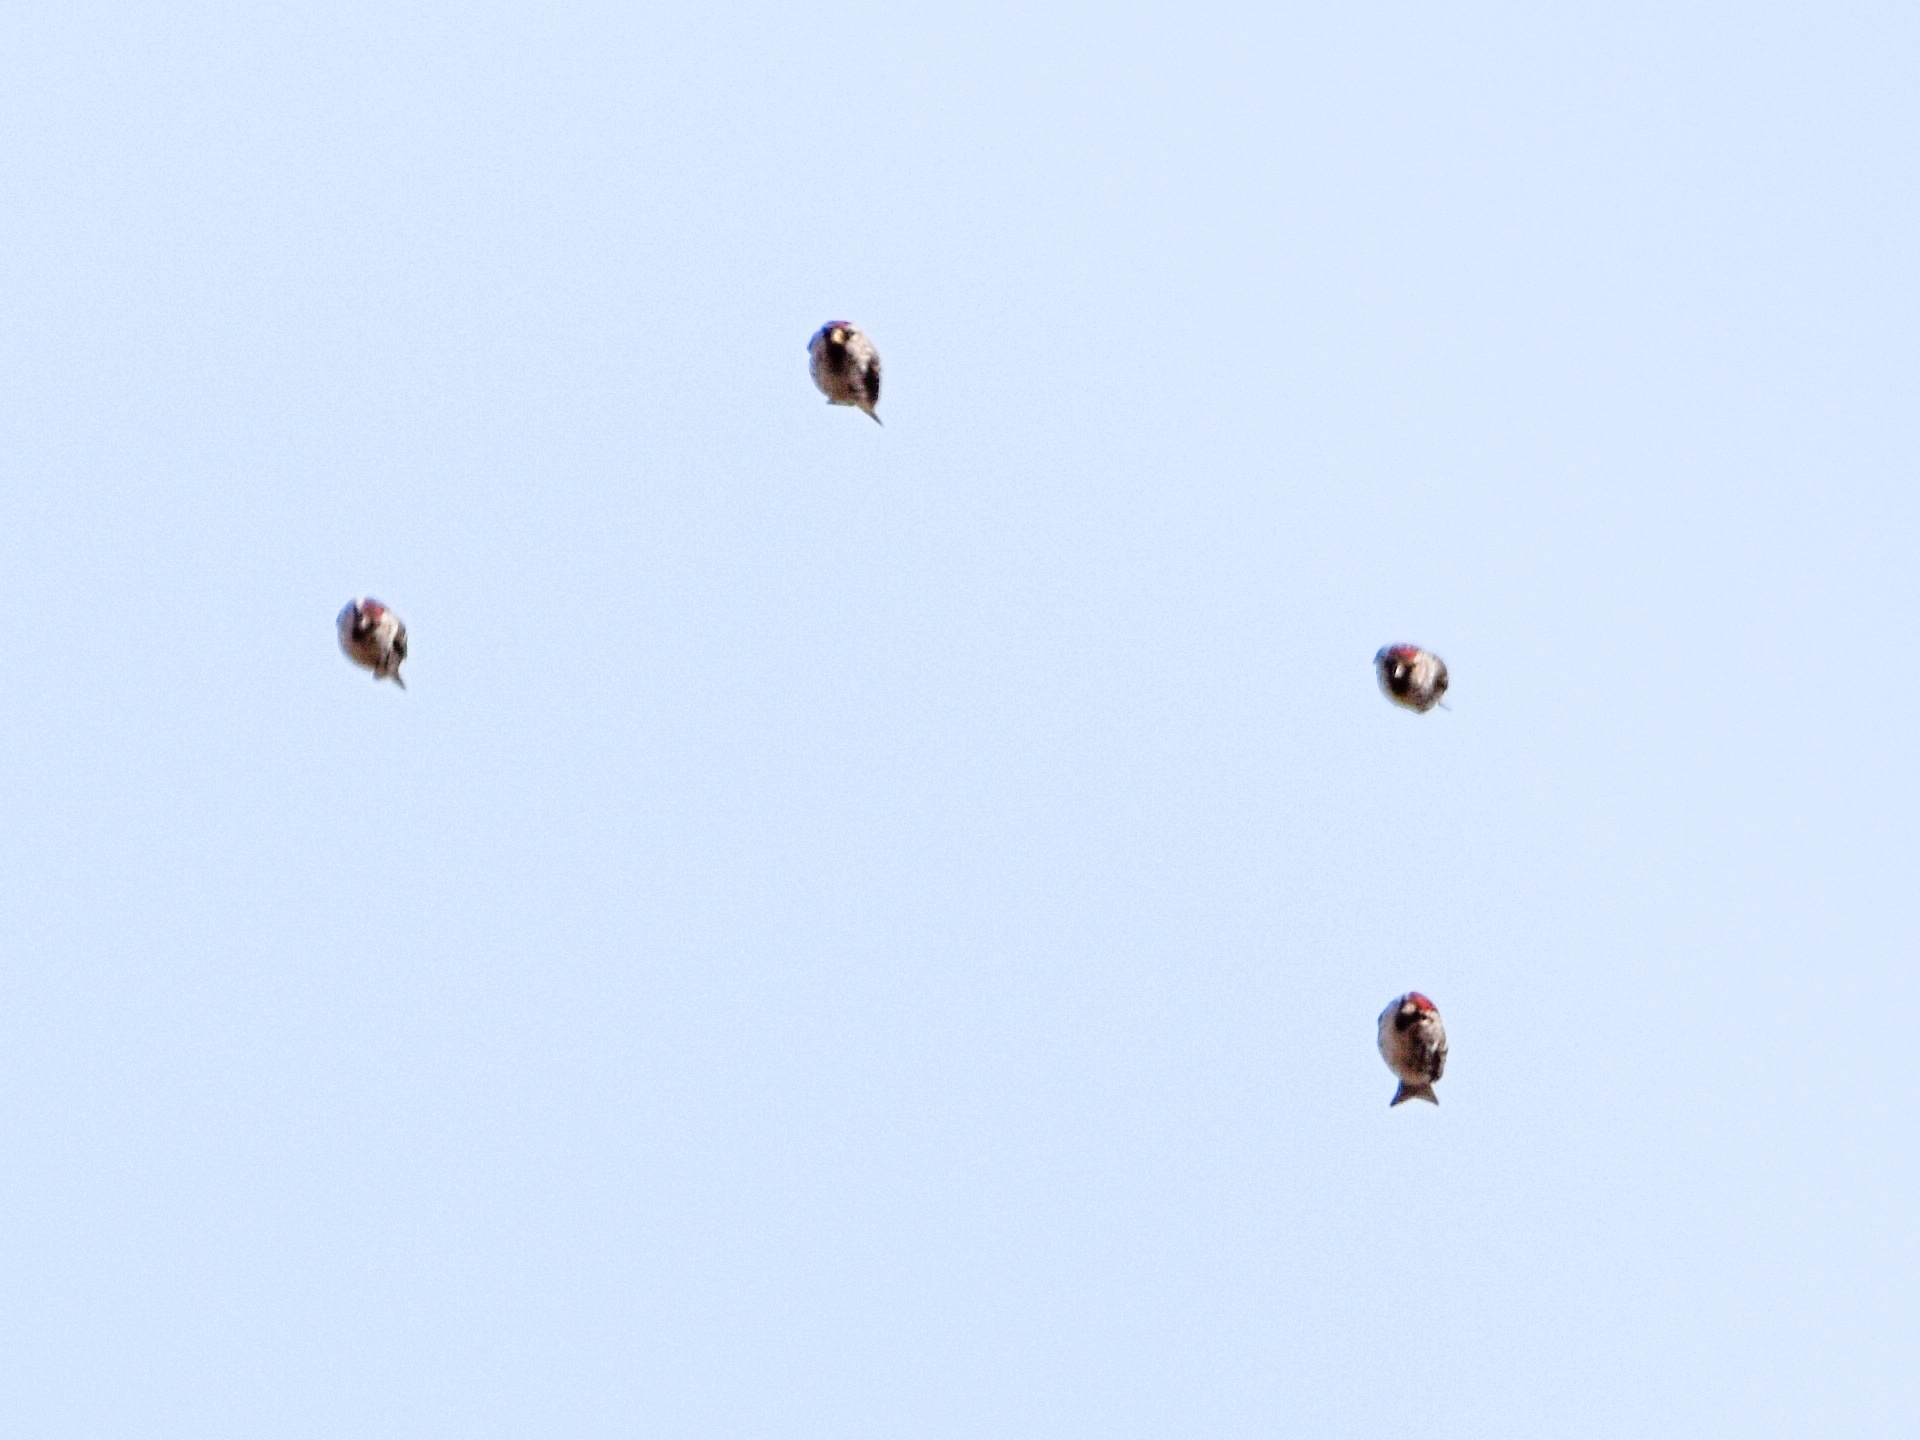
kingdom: Animalia
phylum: Chordata
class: Aves
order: Passeriformes
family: Fringillidae
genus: Acanthis
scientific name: Acanthis flammea
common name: Common redpoll
